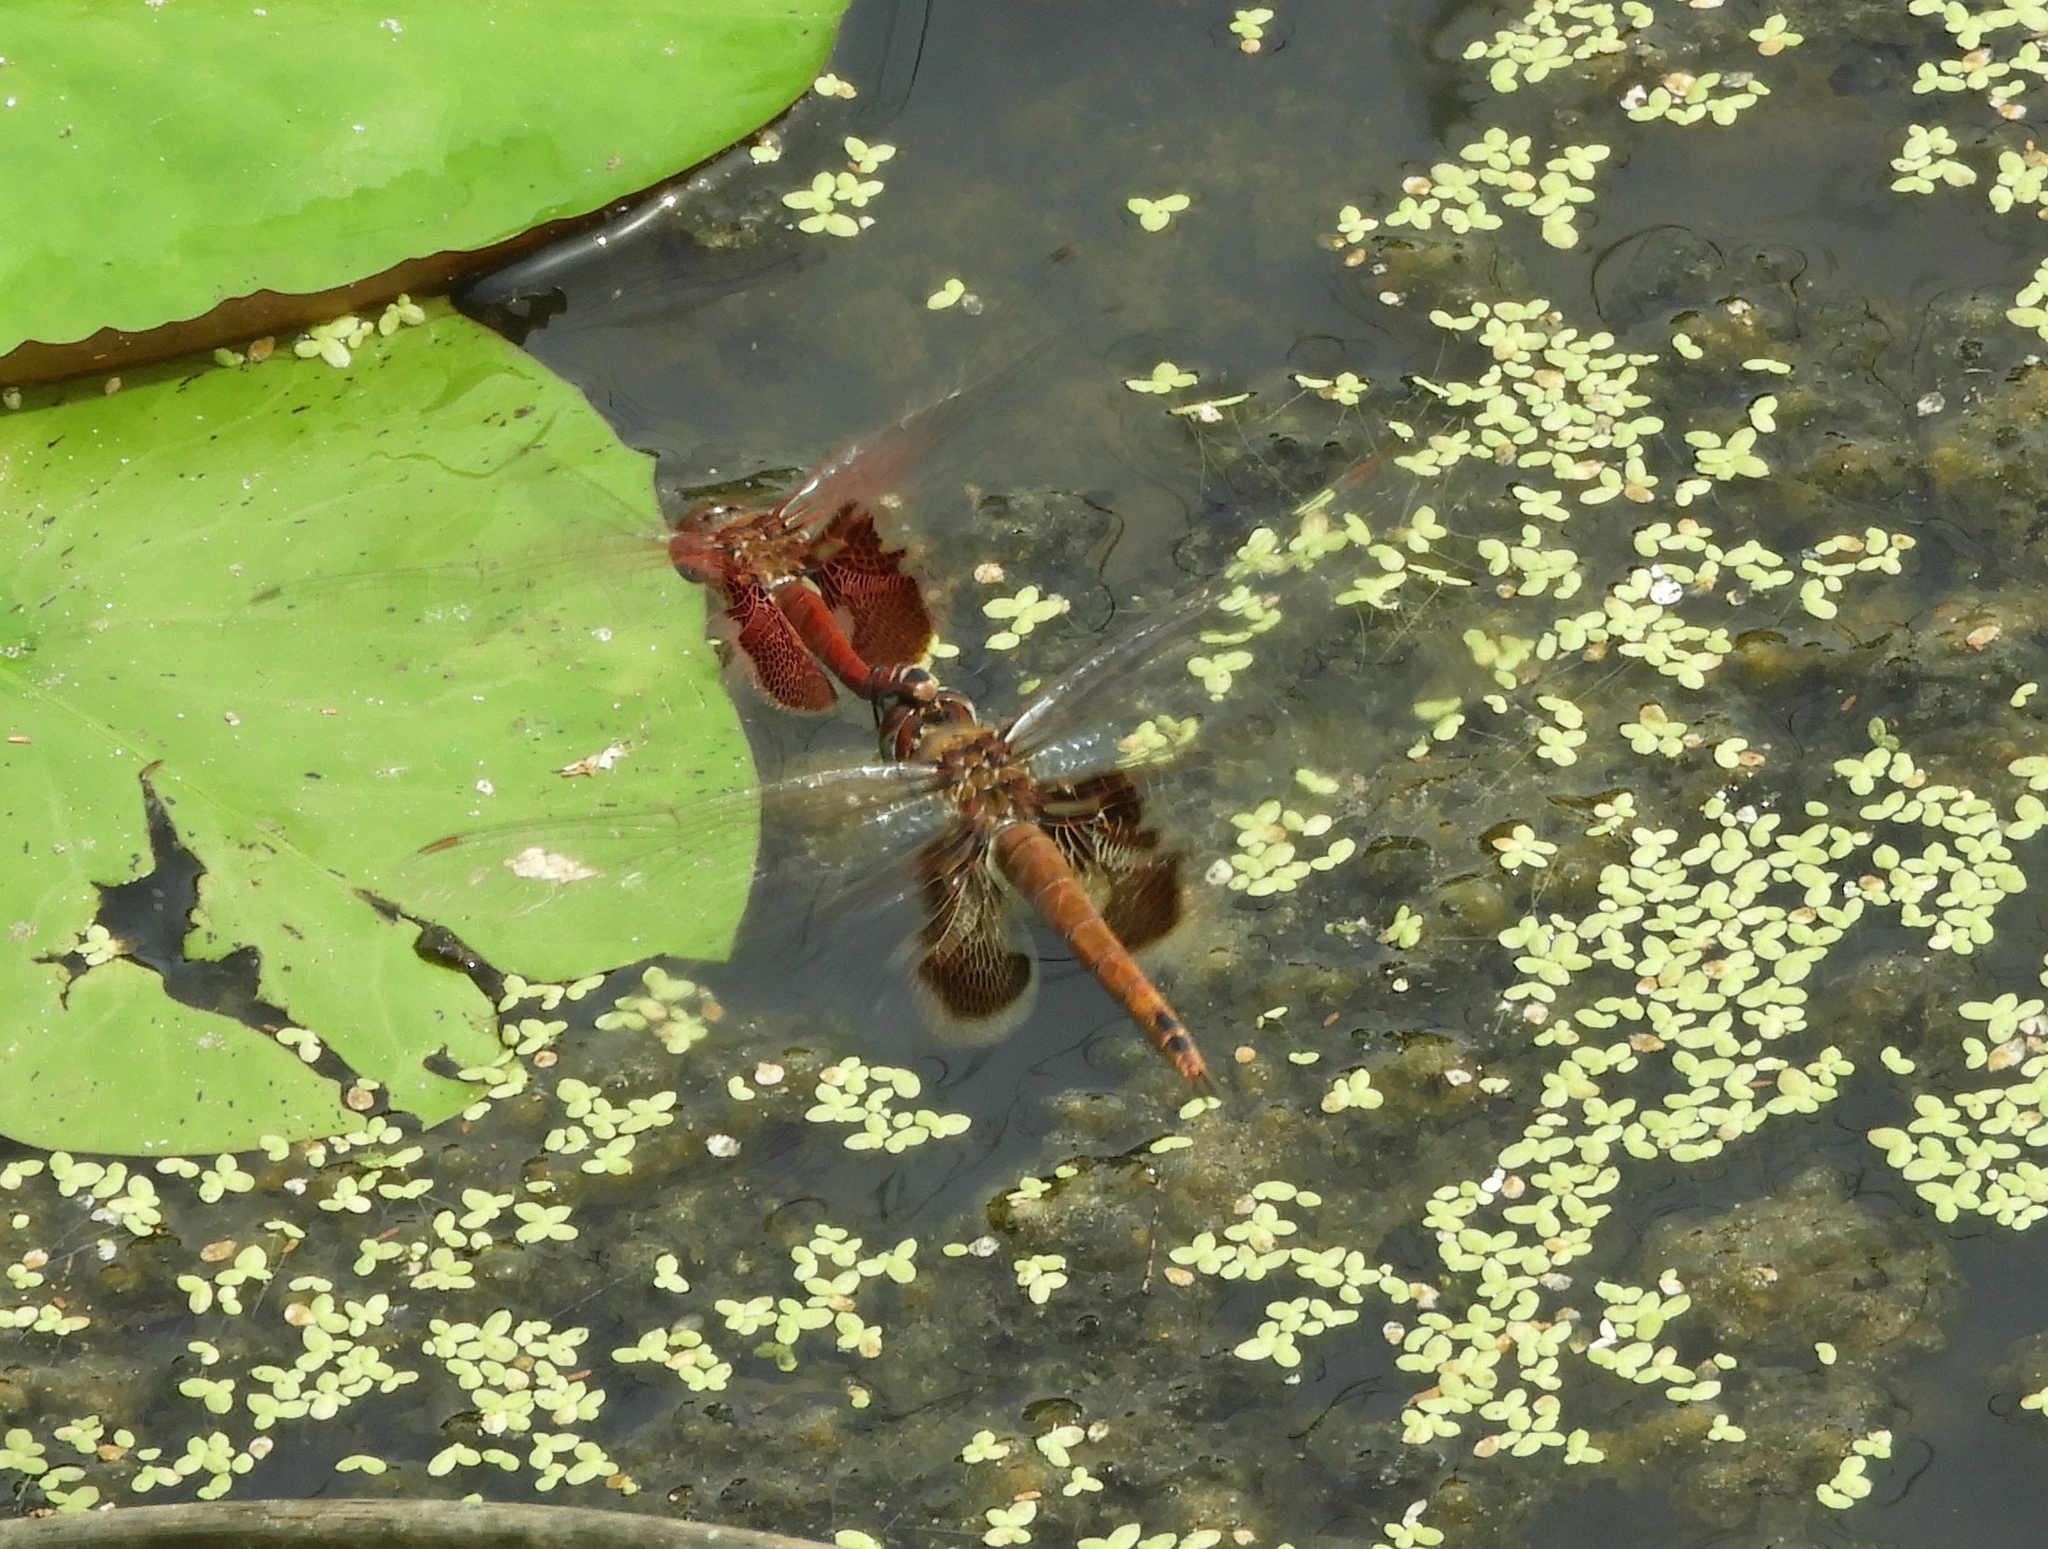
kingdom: Animalia
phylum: Arthropoda
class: Insecta
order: Odonata
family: Libellulidae
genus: Tramea
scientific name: Tramea onusta
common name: Red saddlebags
